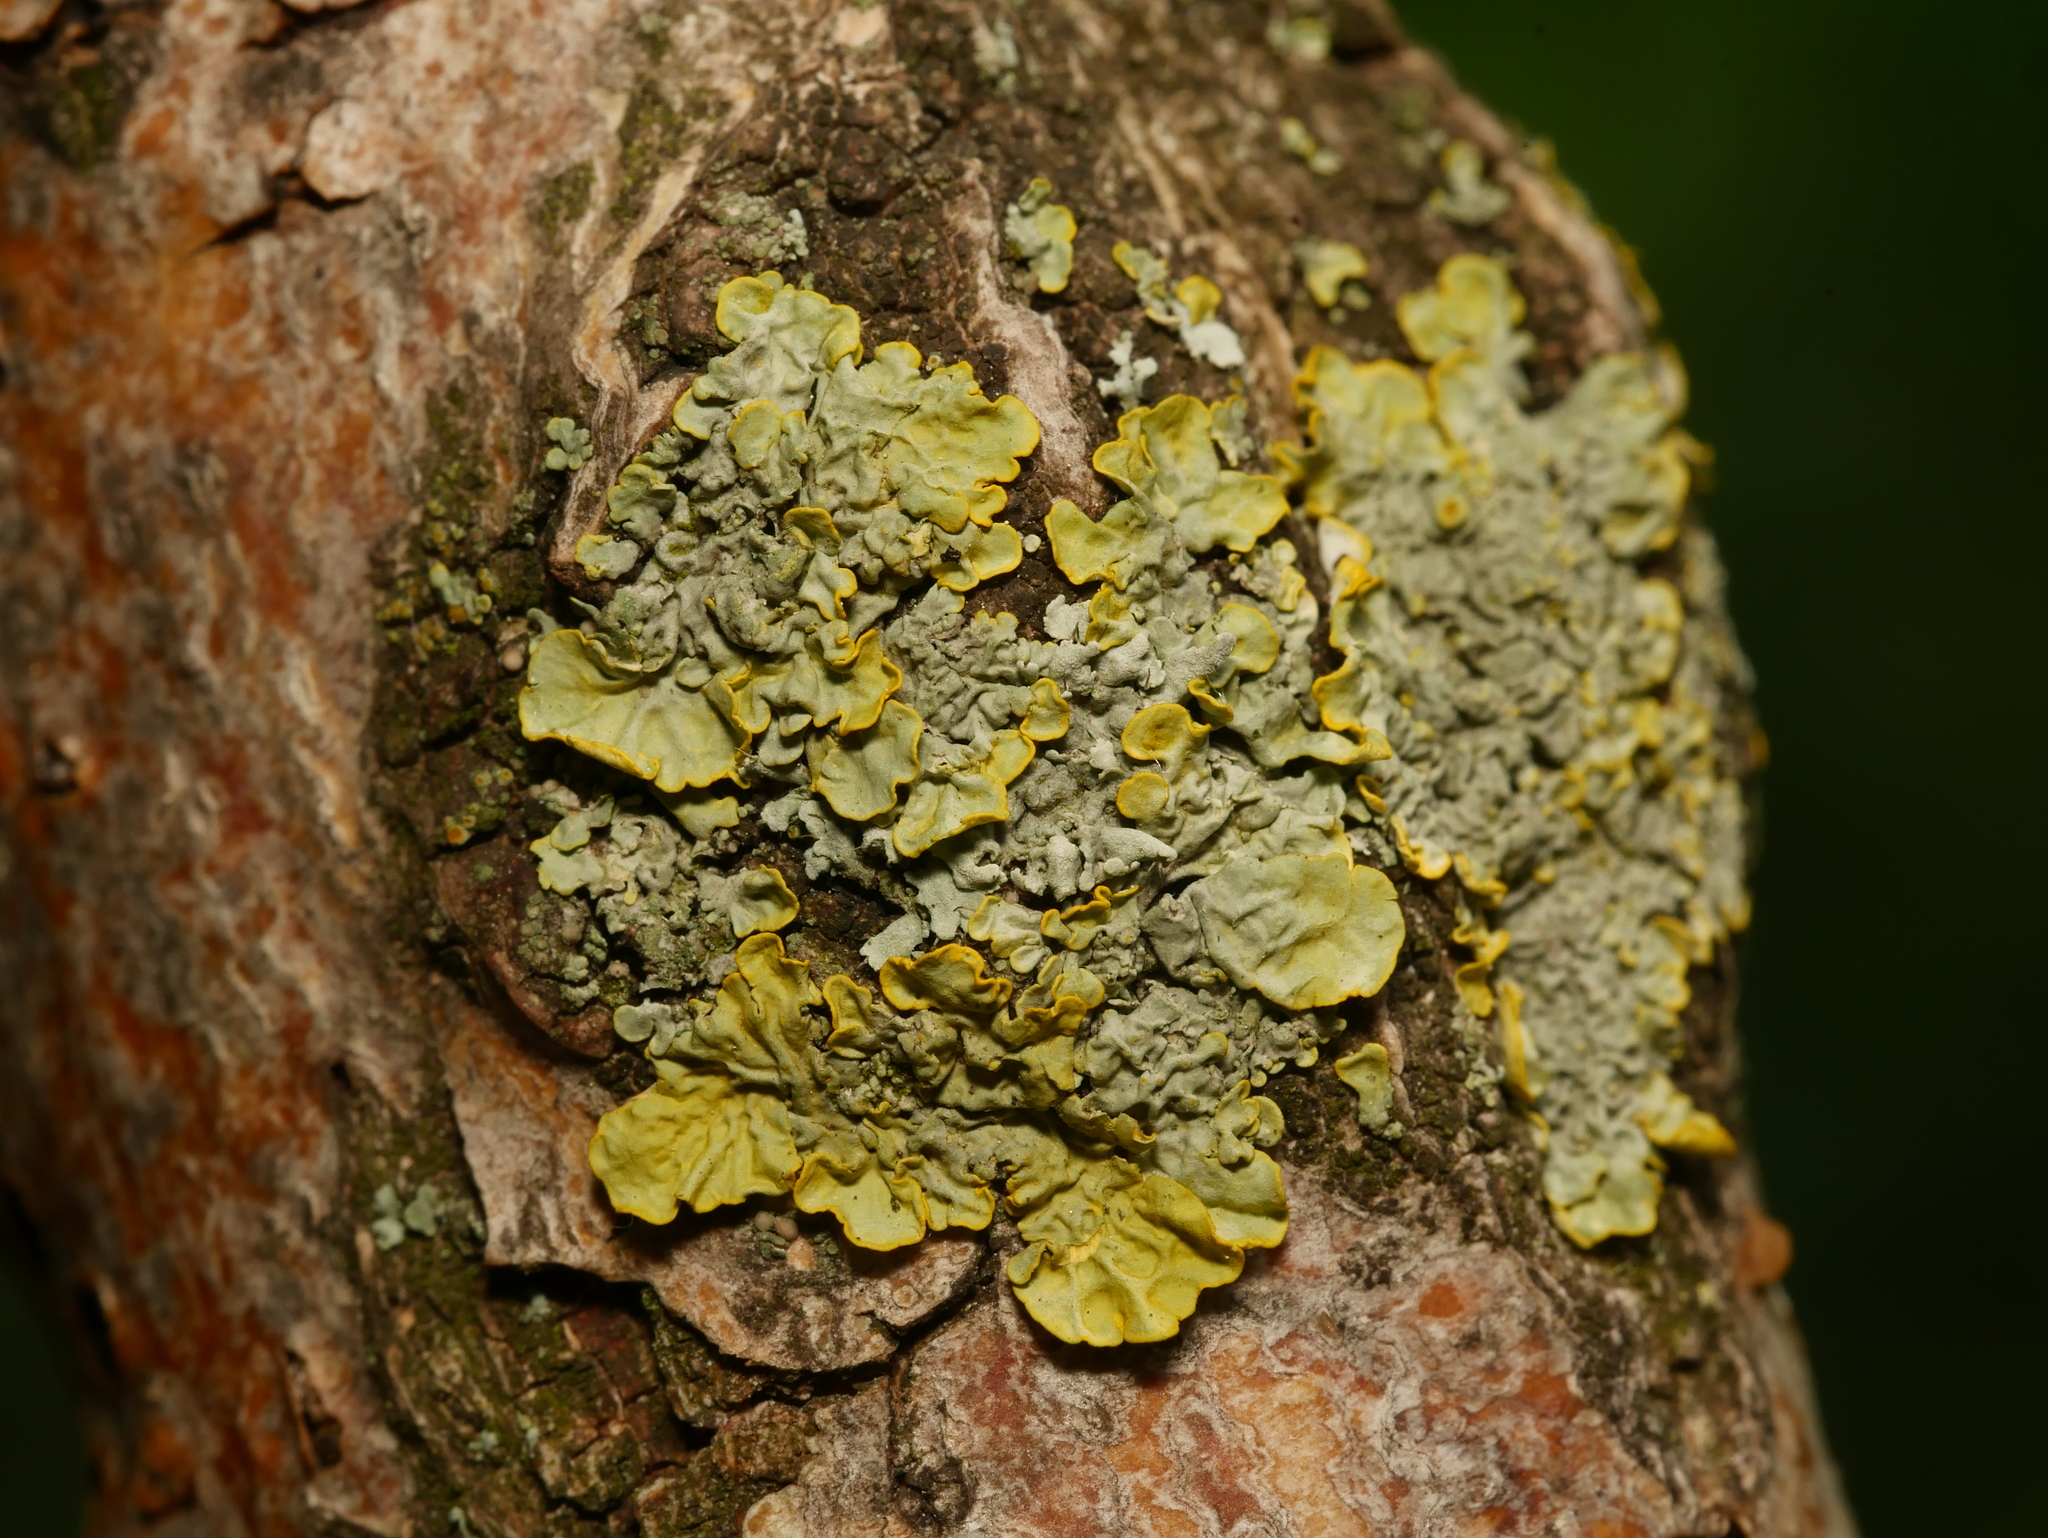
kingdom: Fungi
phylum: Ascomycota
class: Lecanoromycetes
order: Teloschistales
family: Teloschistaceae
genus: Xanthoria
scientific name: Xanthoria parietina
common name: Common orange lichen
